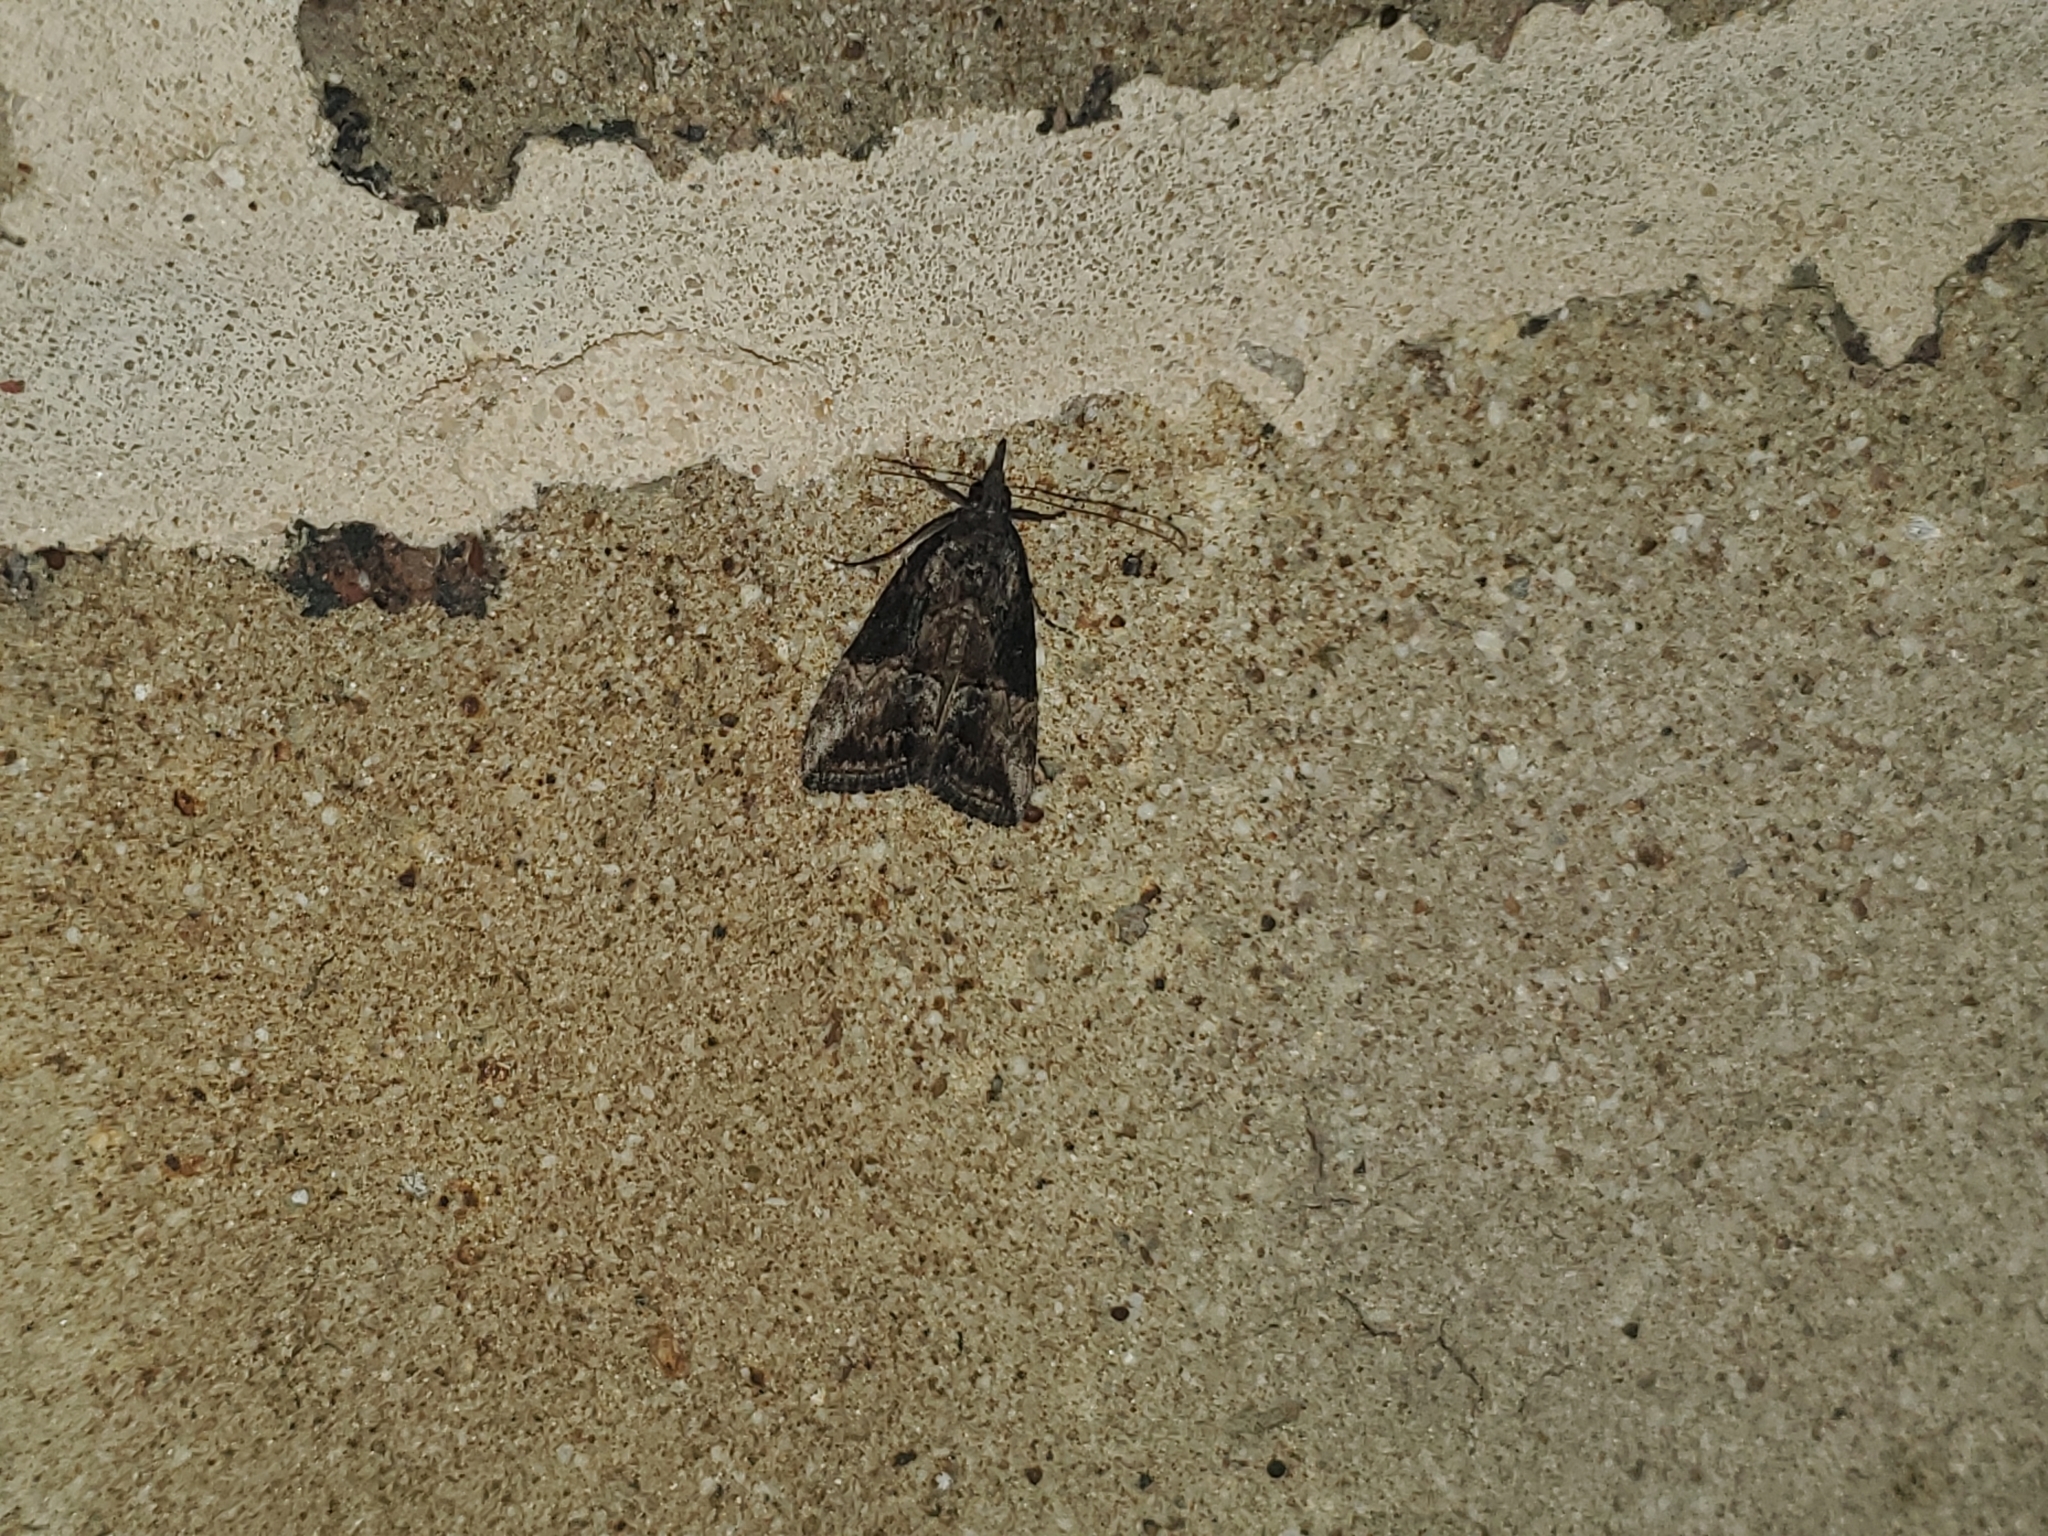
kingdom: Animalia
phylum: Arthropoda
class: Insecta
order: Lepidoptera
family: Erebidae
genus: Hypena
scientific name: Hypena scabra
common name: Green cloverworm
